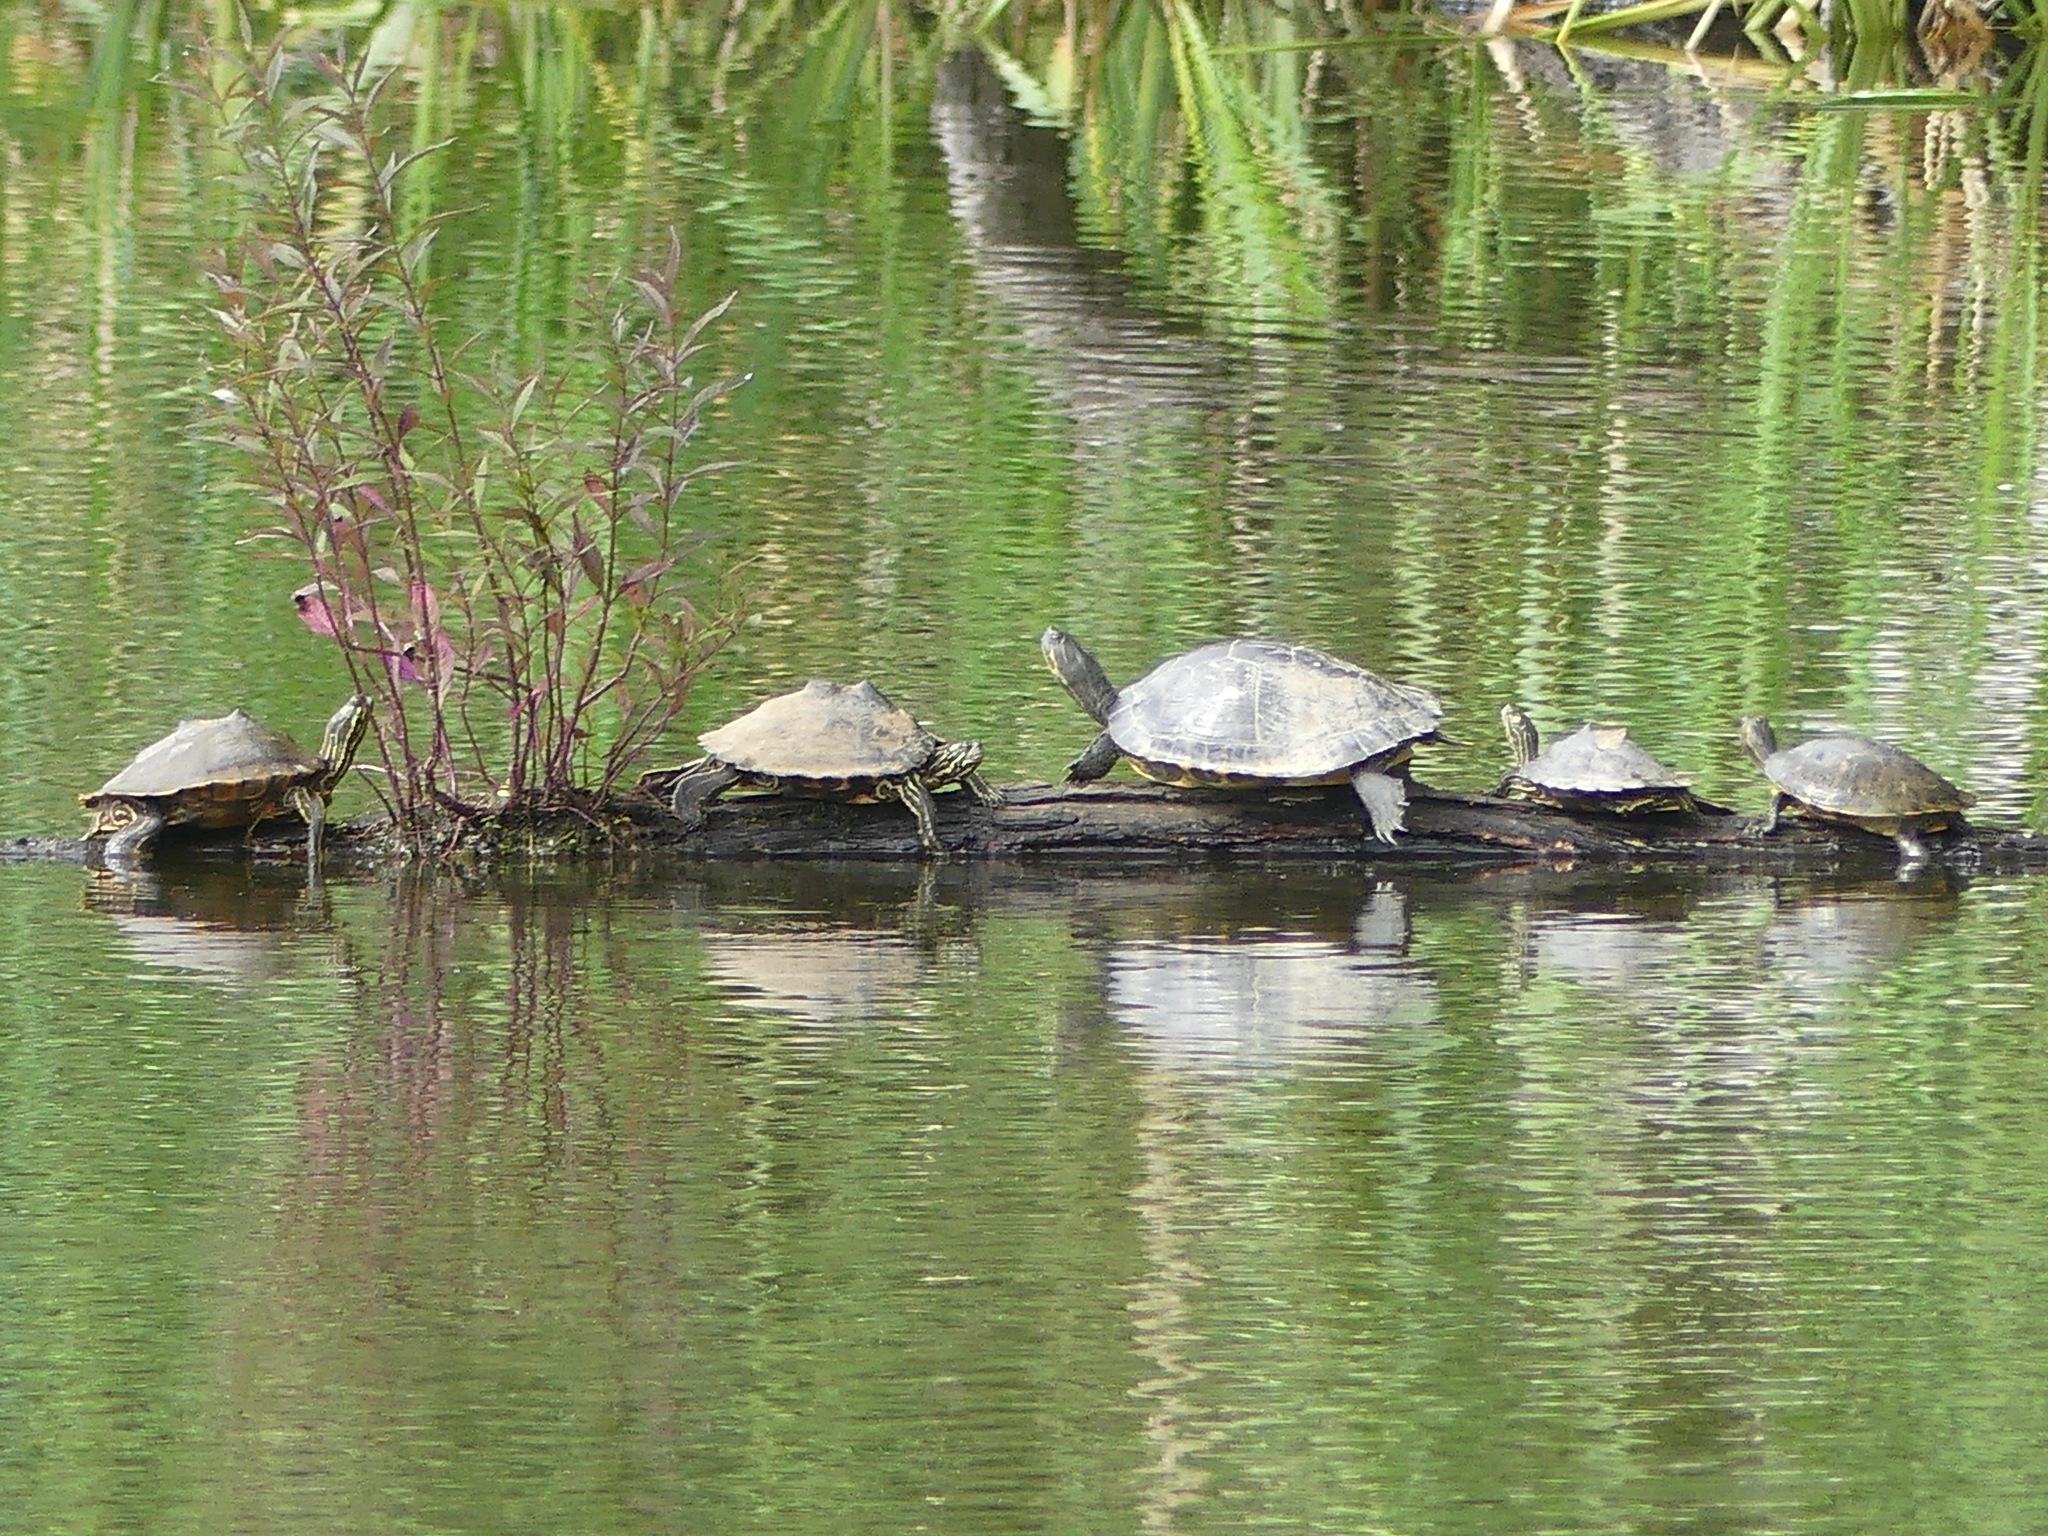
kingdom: Animalia
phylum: Chordata
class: Testudines
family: Emydidae
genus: Graptemys
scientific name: Graptemys oculifera
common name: Ringed map turtle
